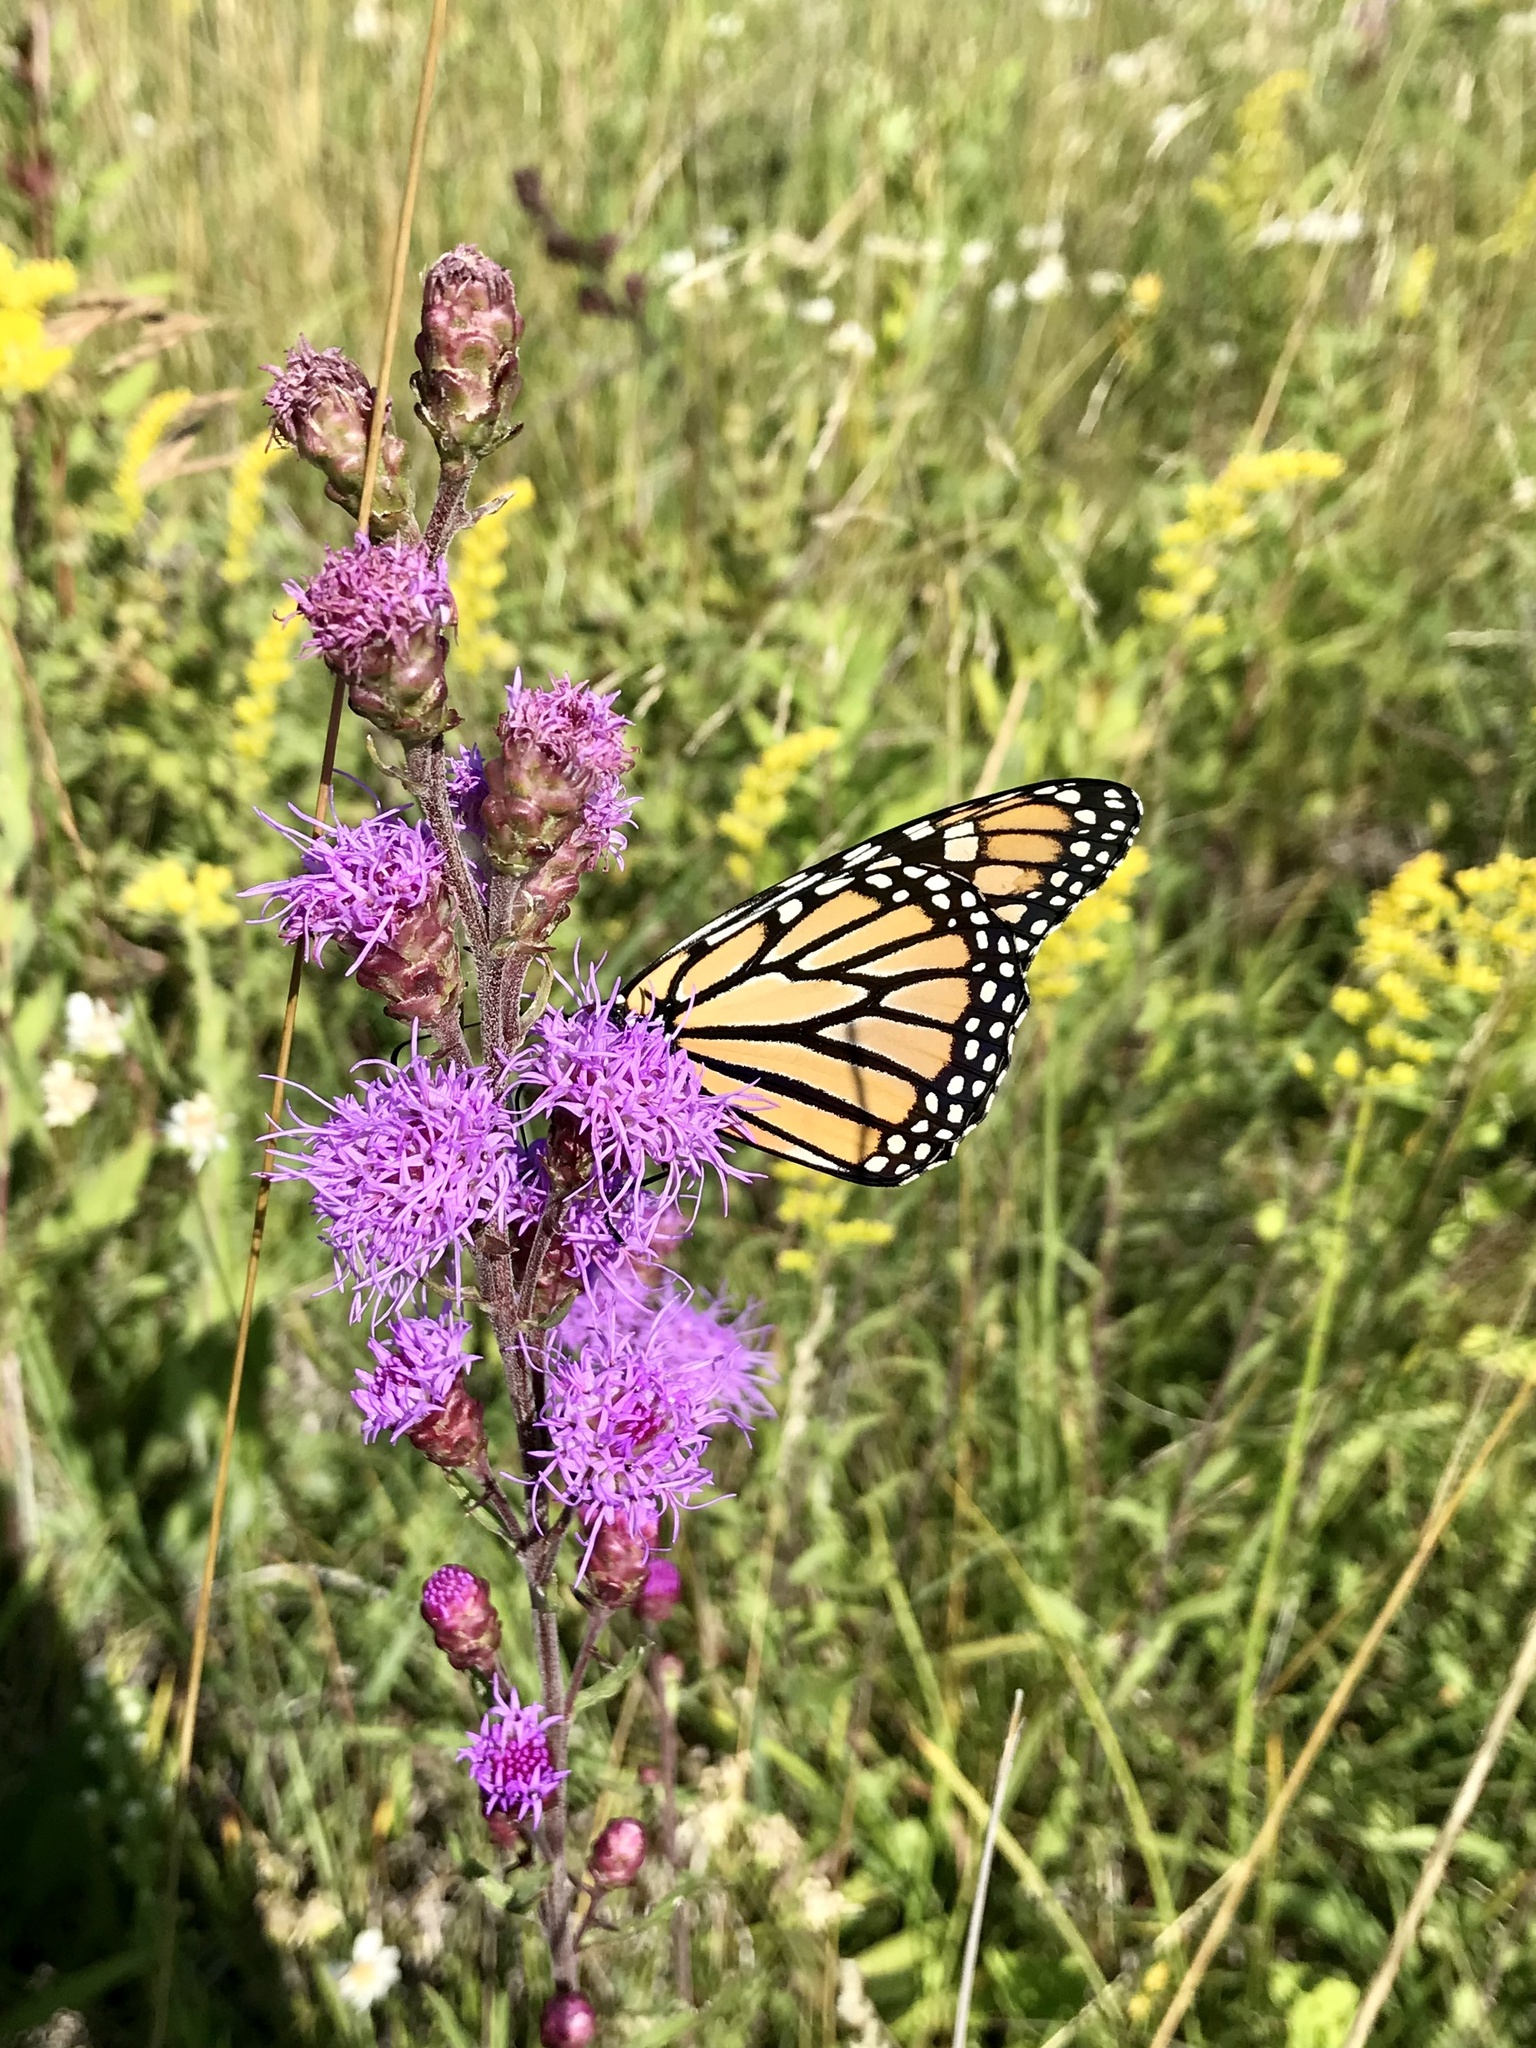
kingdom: Animalia
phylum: Arthropoda
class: Insecta
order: Lepidoptera
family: Nymphalidae
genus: Danaus
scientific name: Danaus plexippus
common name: Monarch
